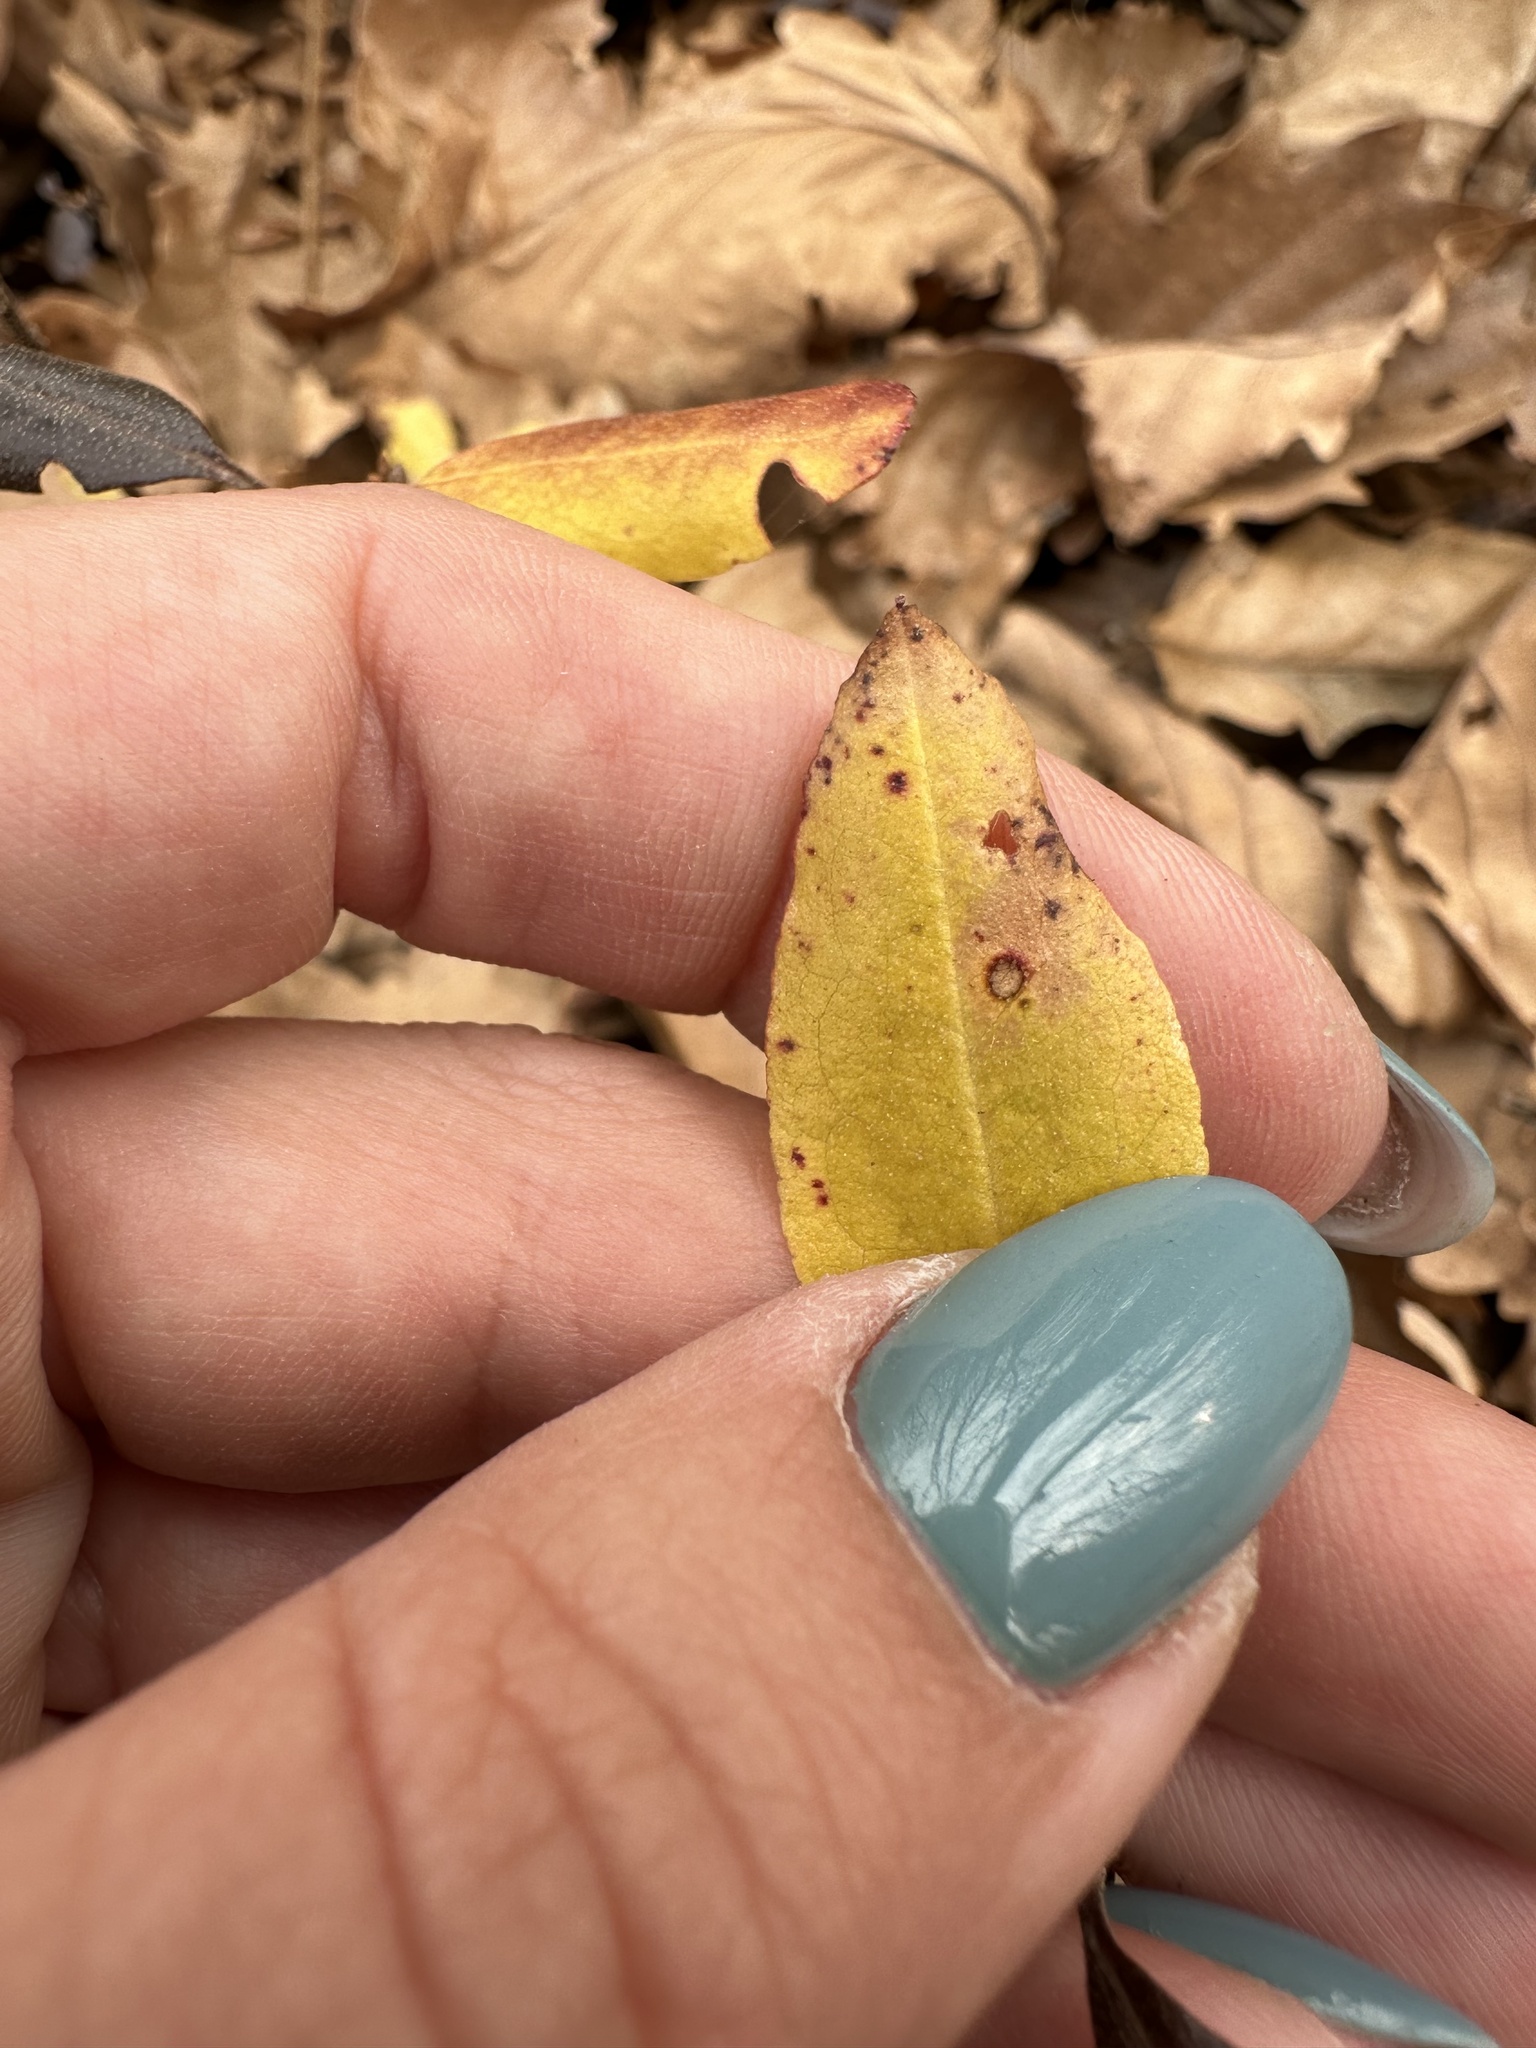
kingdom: Plantae
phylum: Tracheophyta
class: Magnoliopsida
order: Ericales
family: Ericaceae
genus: Rhododendron
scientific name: Rhododendron dauricum
